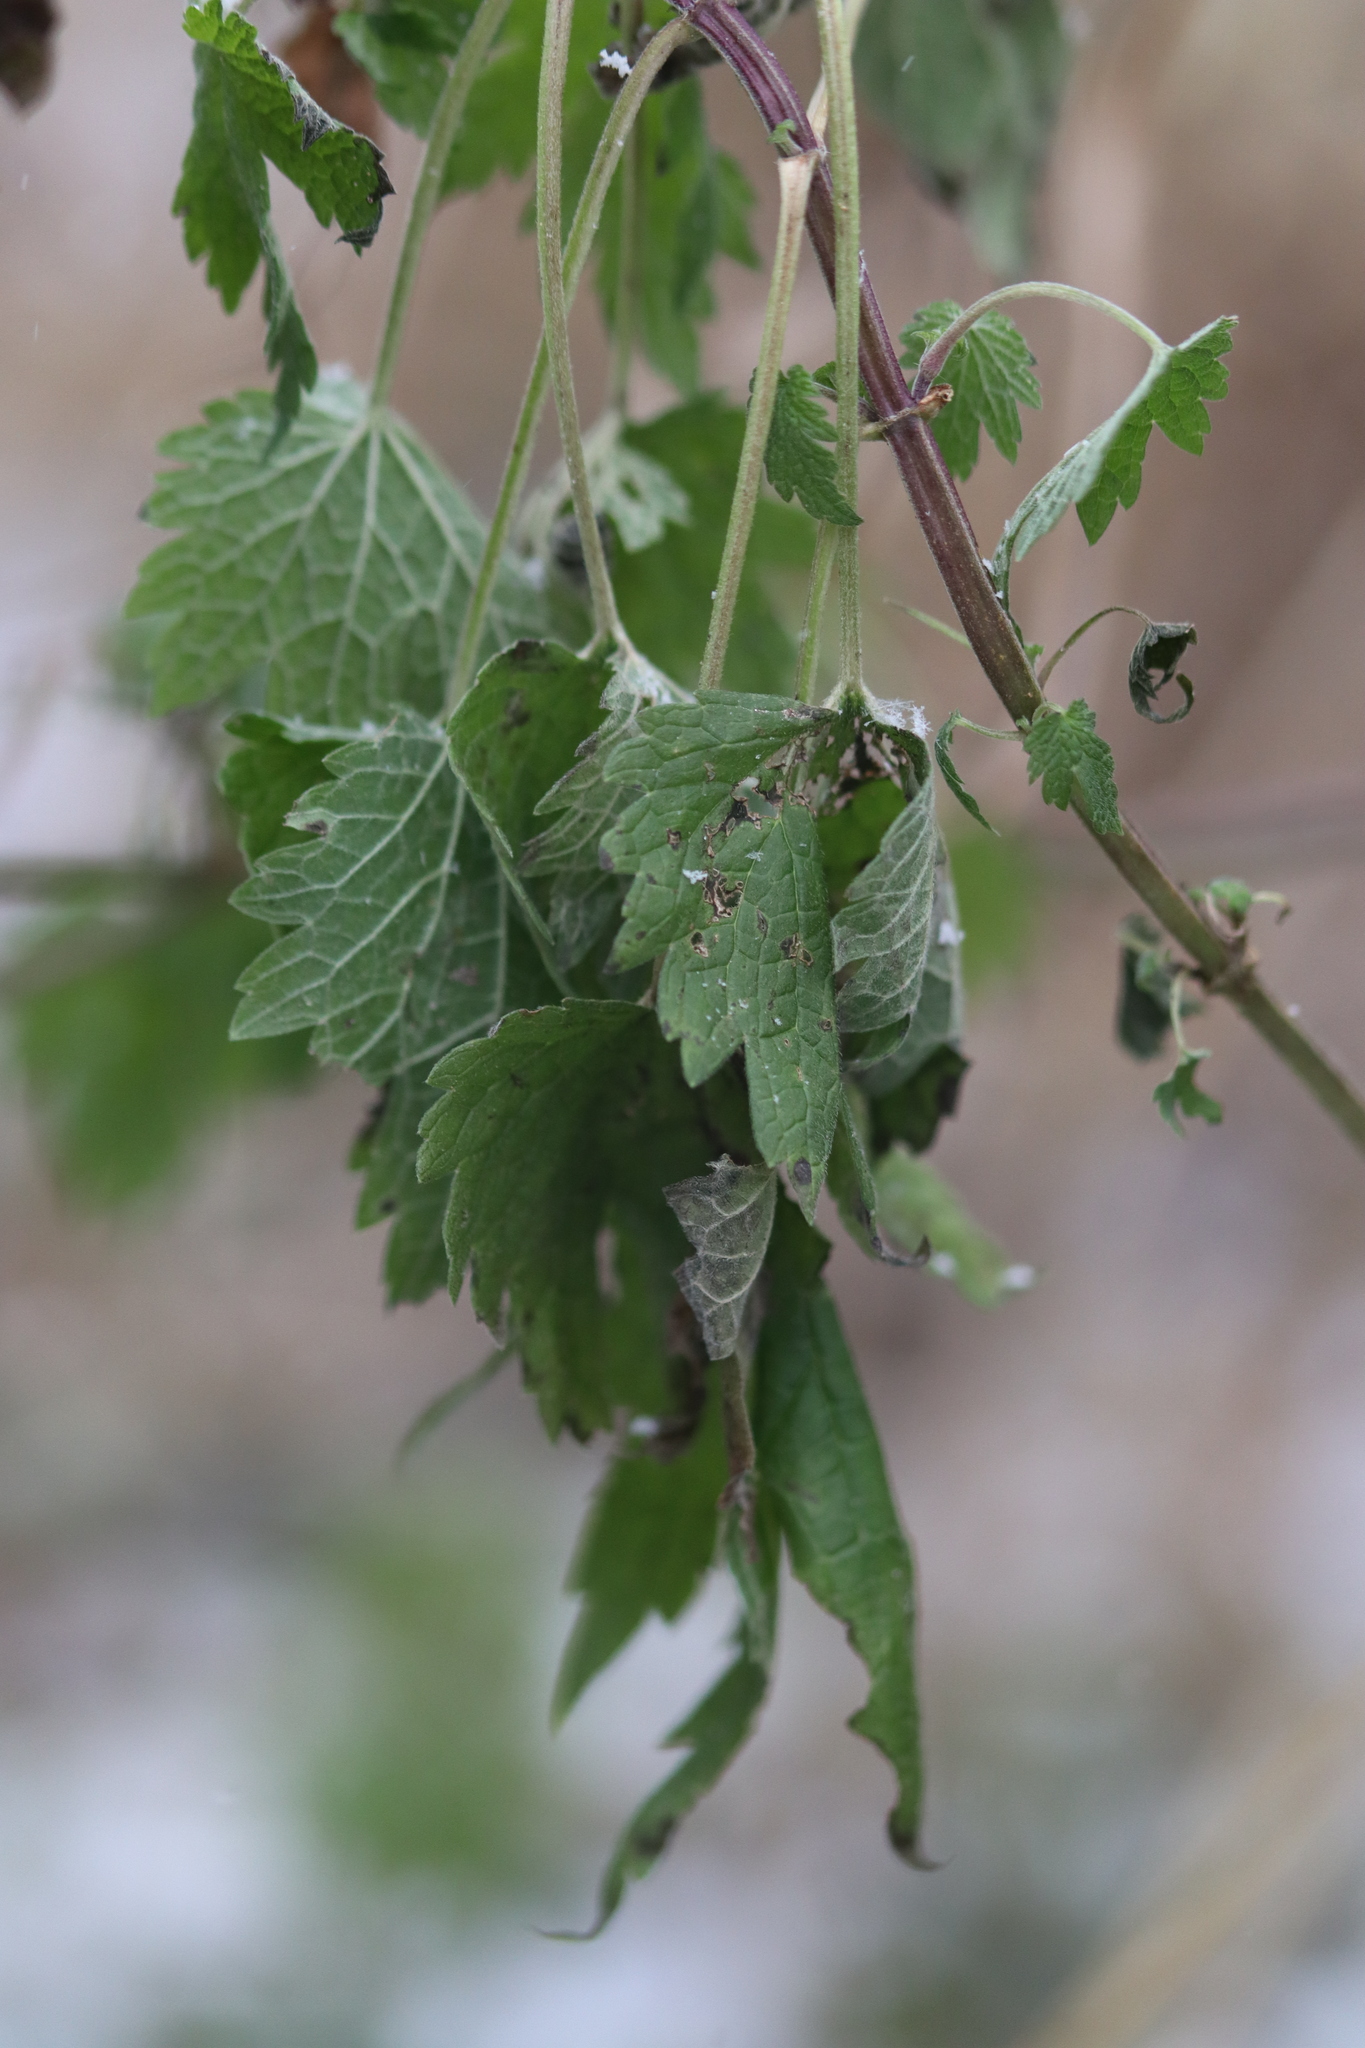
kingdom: Plantae
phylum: Tracheophyta
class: Magnoliopsida
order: Lamiales
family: Lamiaceae
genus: Leonurus
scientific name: Leonurus cardiaca
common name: Motherwort
